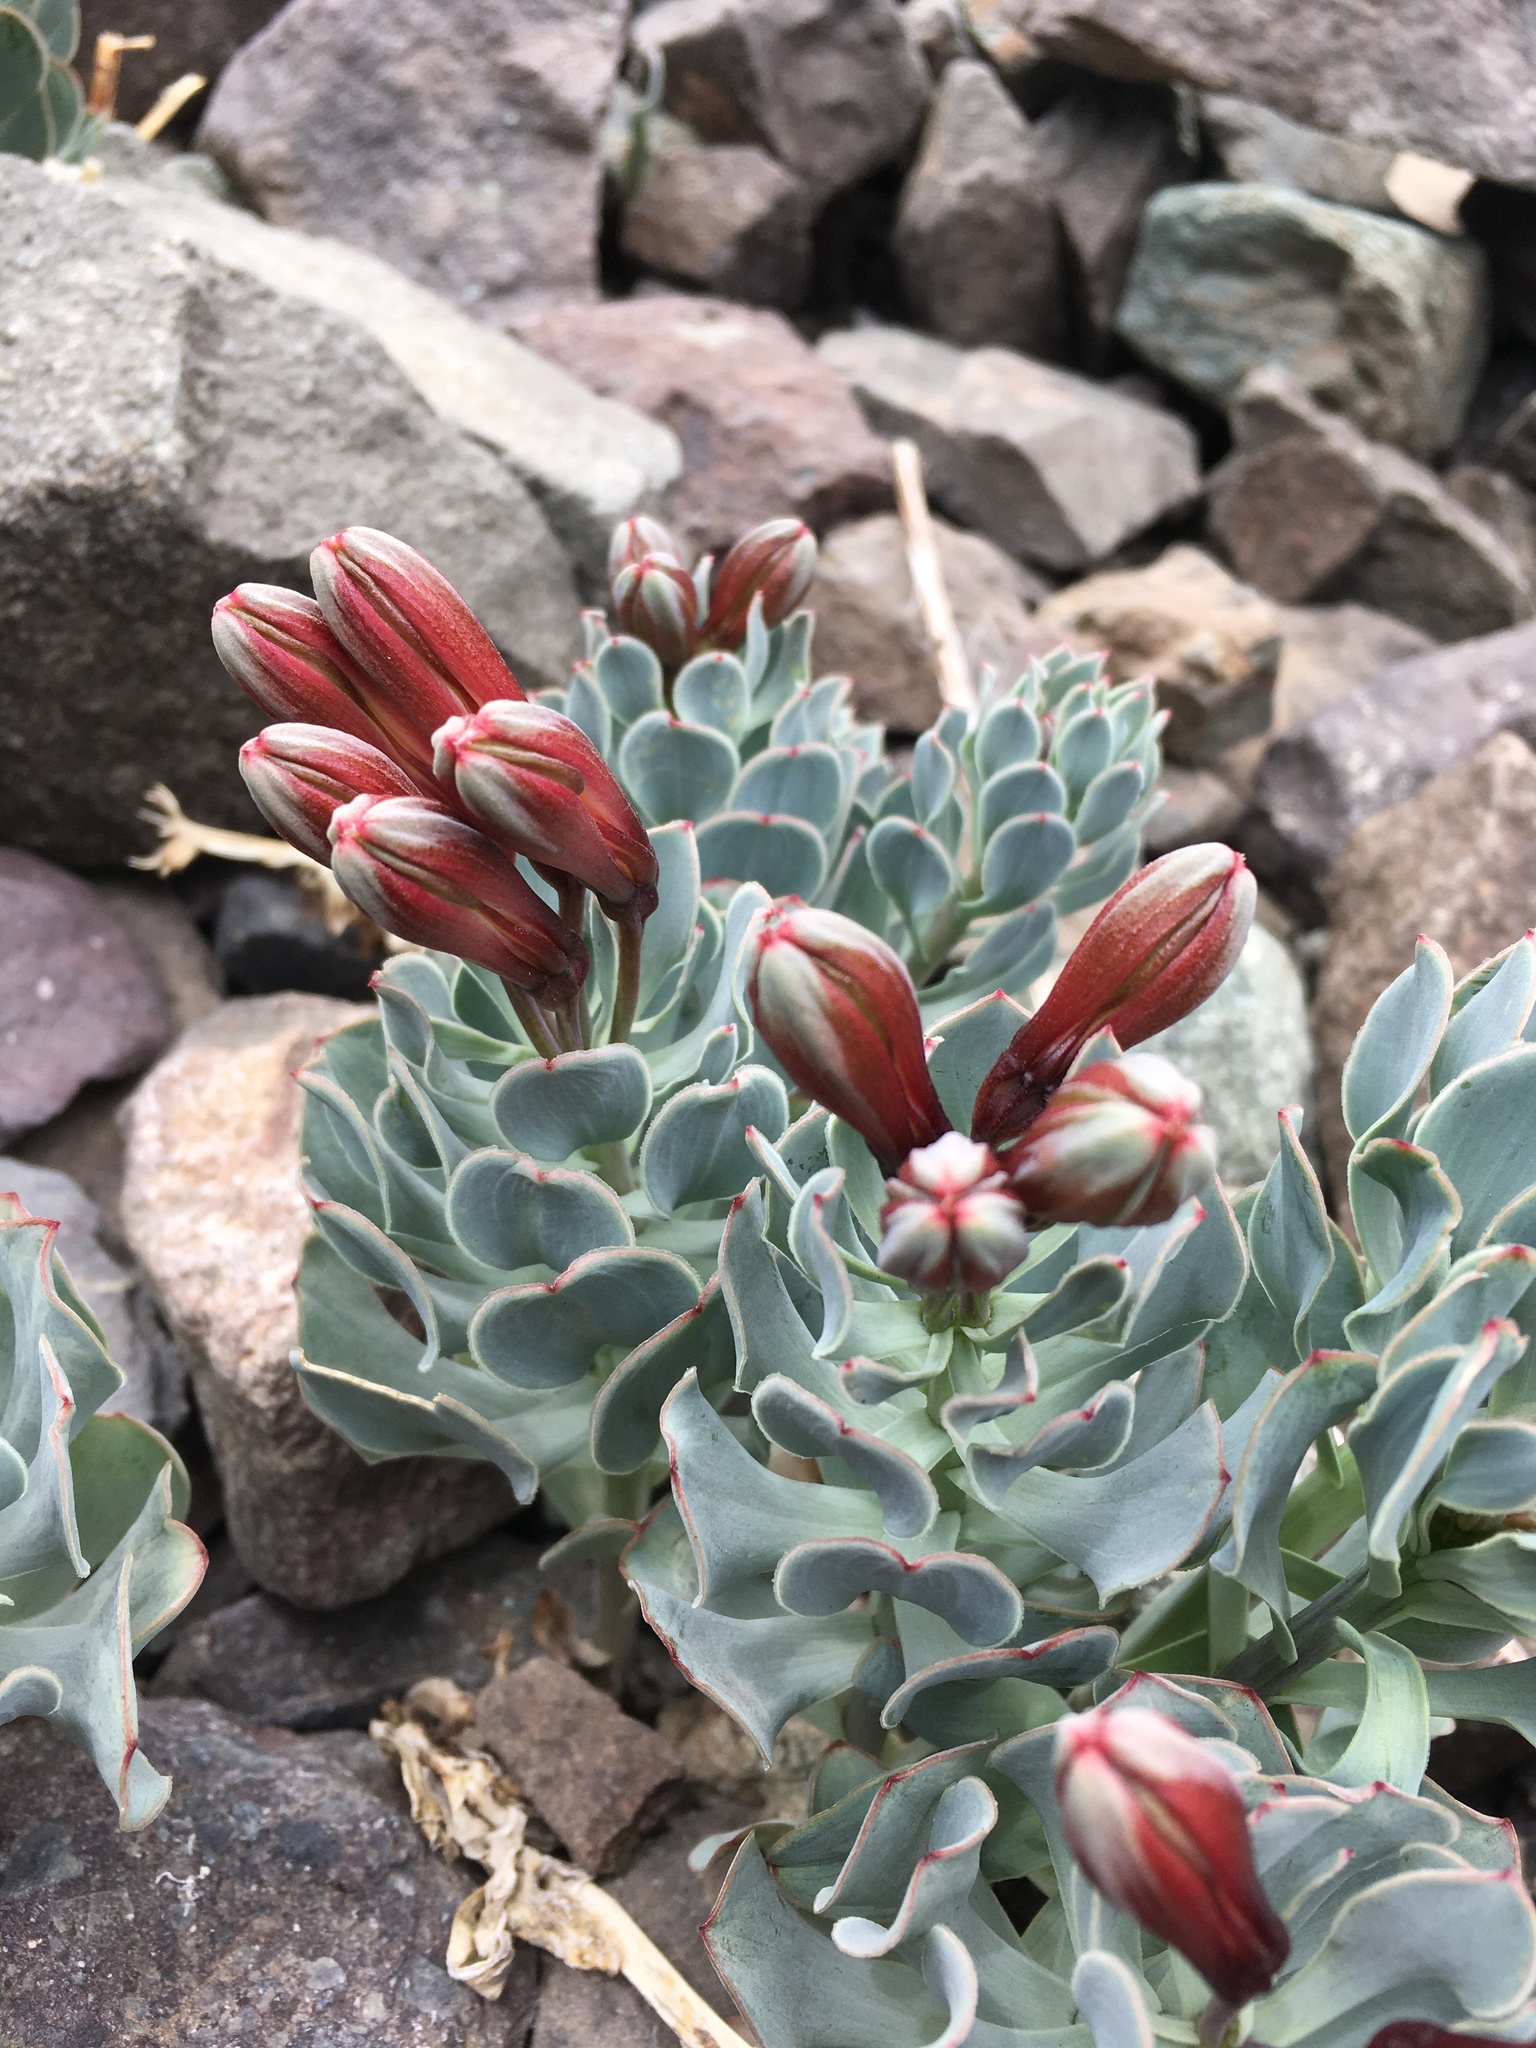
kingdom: Plantae
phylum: Tracheophyta
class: Liliopsida
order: Liliales
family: Alstroemeriaceae
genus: Alstroemeria
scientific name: Alstroemeria spathulata
